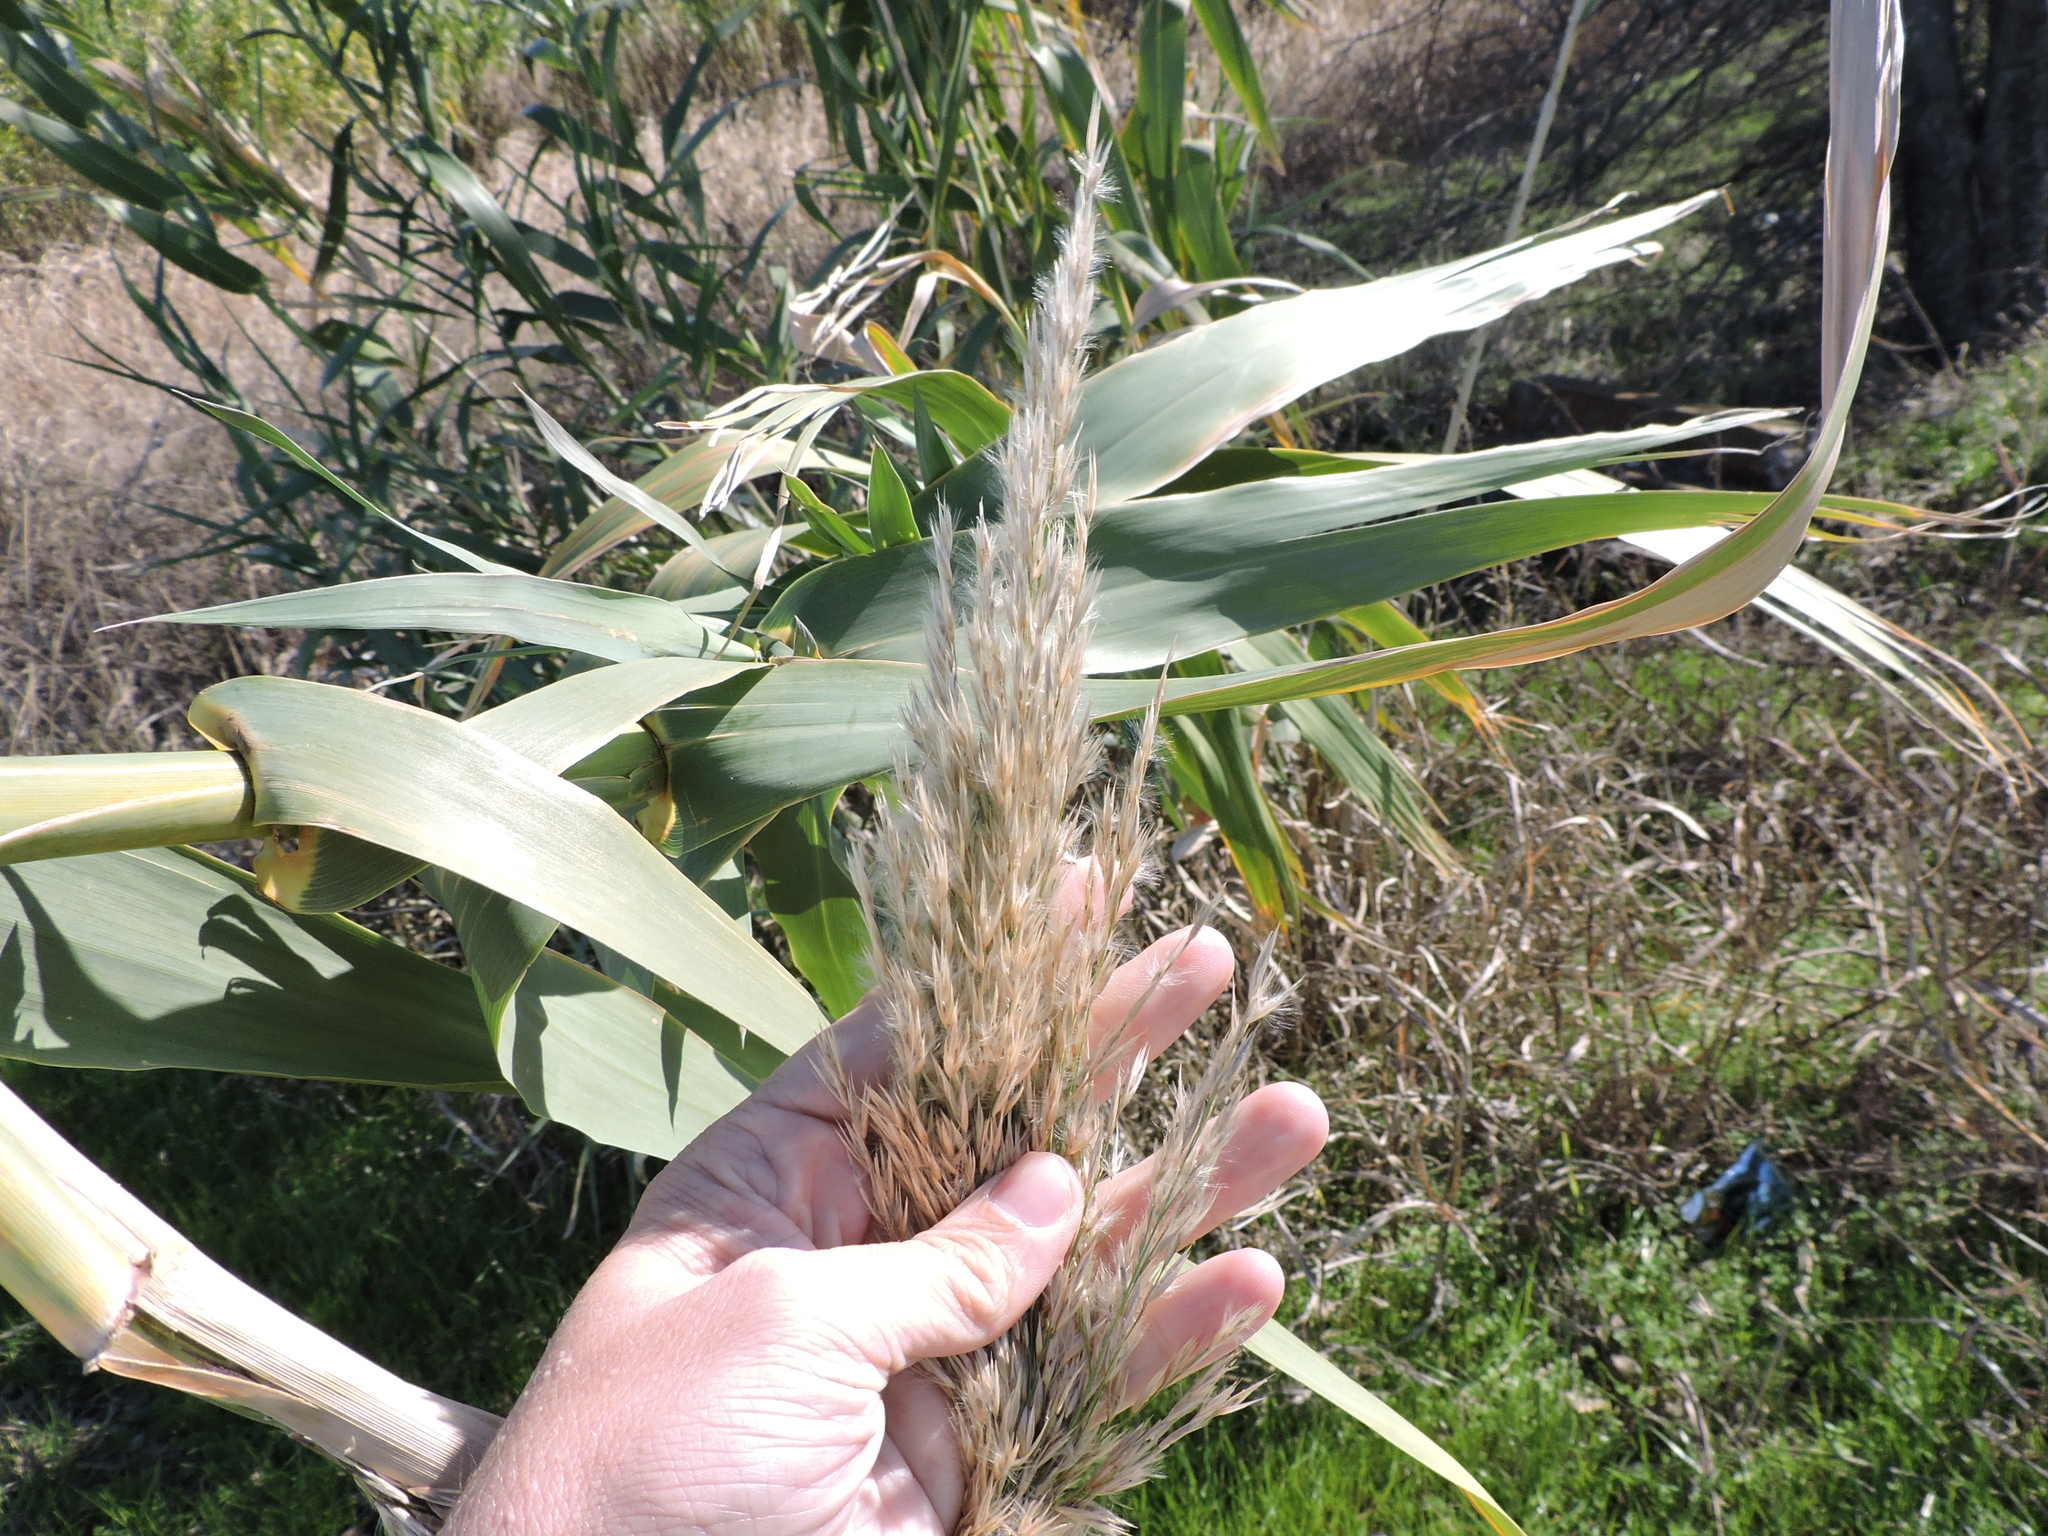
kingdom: Plantae
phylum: Tracheophyta
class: Liliopsida
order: Poales
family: Poaceae
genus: Arundo
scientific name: Arundo donax
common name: Giant reed
